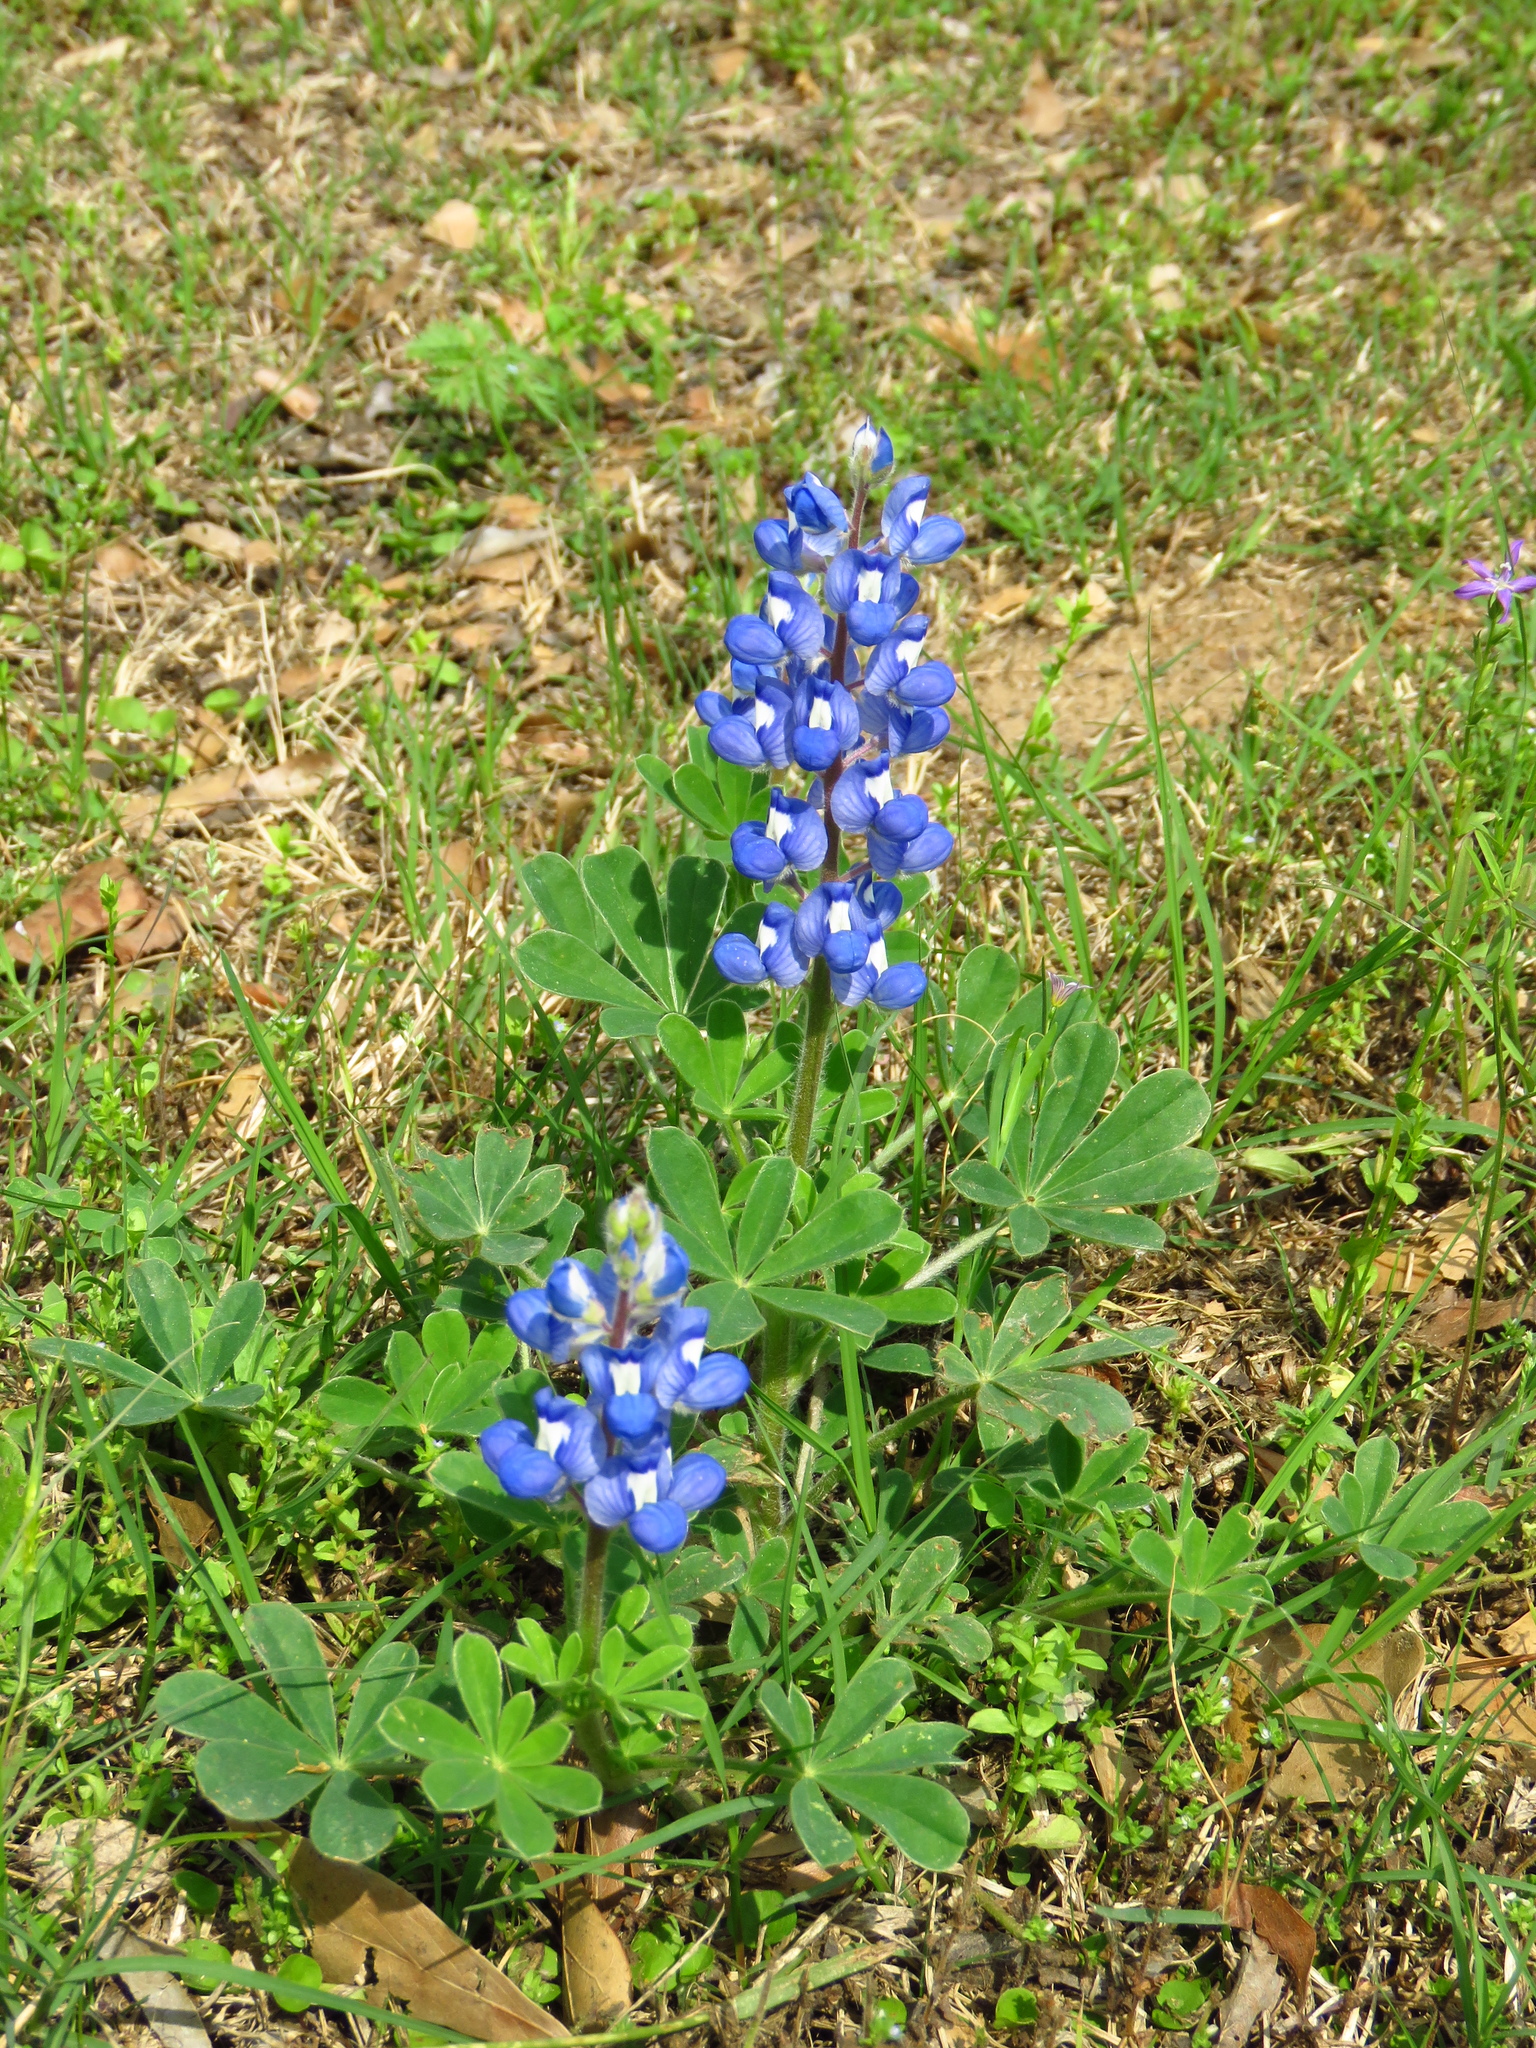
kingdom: Plantae
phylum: Tracheophyta
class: Magnoliopsida
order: Fabales
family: Fabaceae
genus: Lupinus
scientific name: Lupinus subcarnosus
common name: Texas bluebonnet
